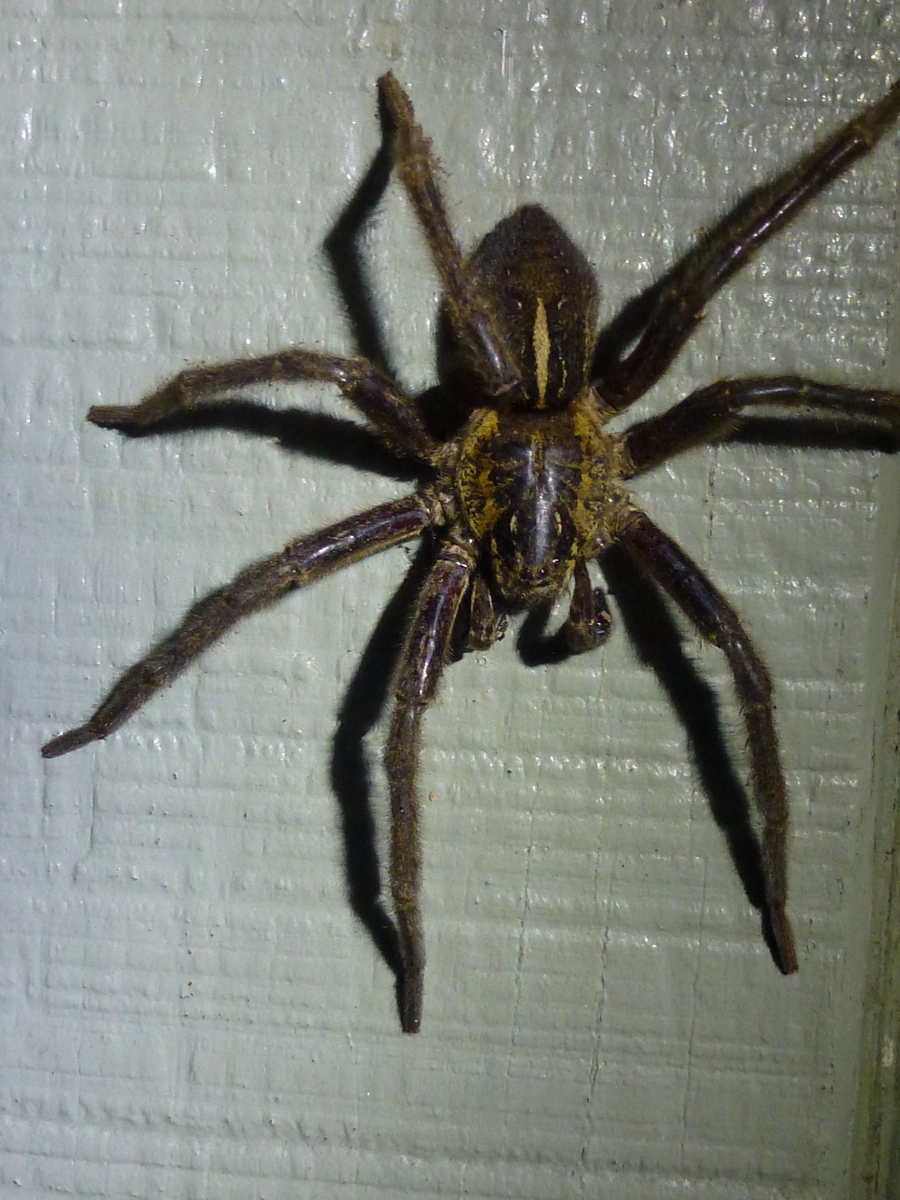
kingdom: Animalia
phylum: Arthropoda
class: Arachnida
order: Araneae
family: Pisauridae
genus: Dolomedes
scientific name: Dolomedes schauinslandi
